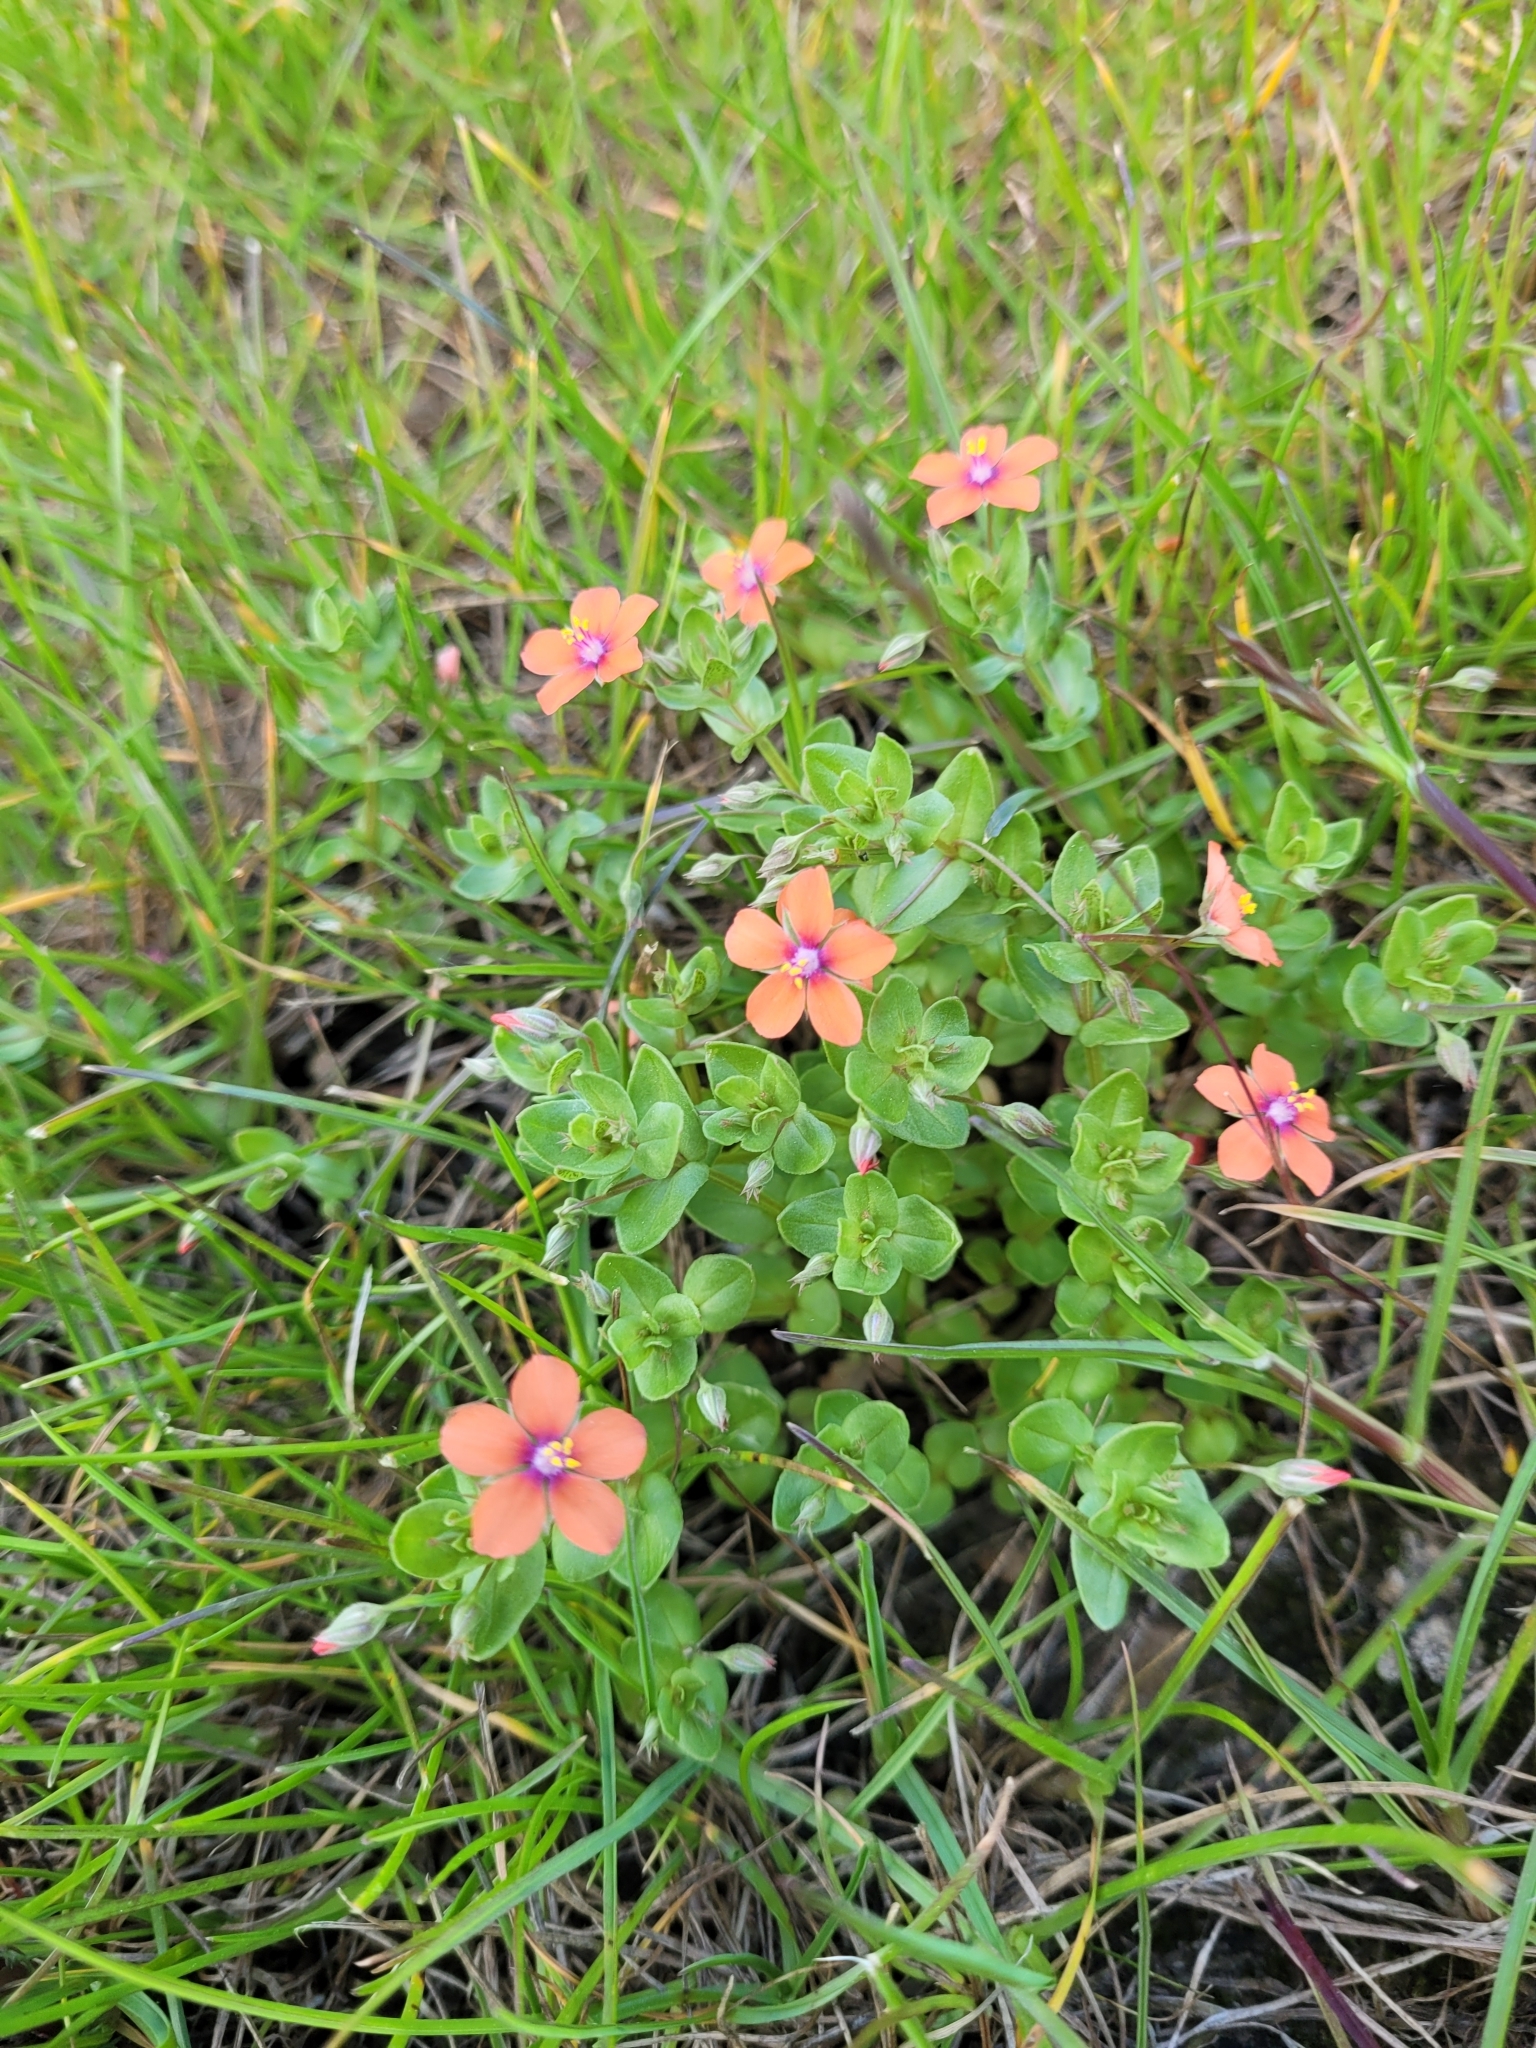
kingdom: Plantae
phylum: Tracheophyta
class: Magnoliopsida
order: Ericales
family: Primulaceae
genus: Lysimachia
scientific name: Lysimachia arvensis
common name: Scarlet pimpernel
